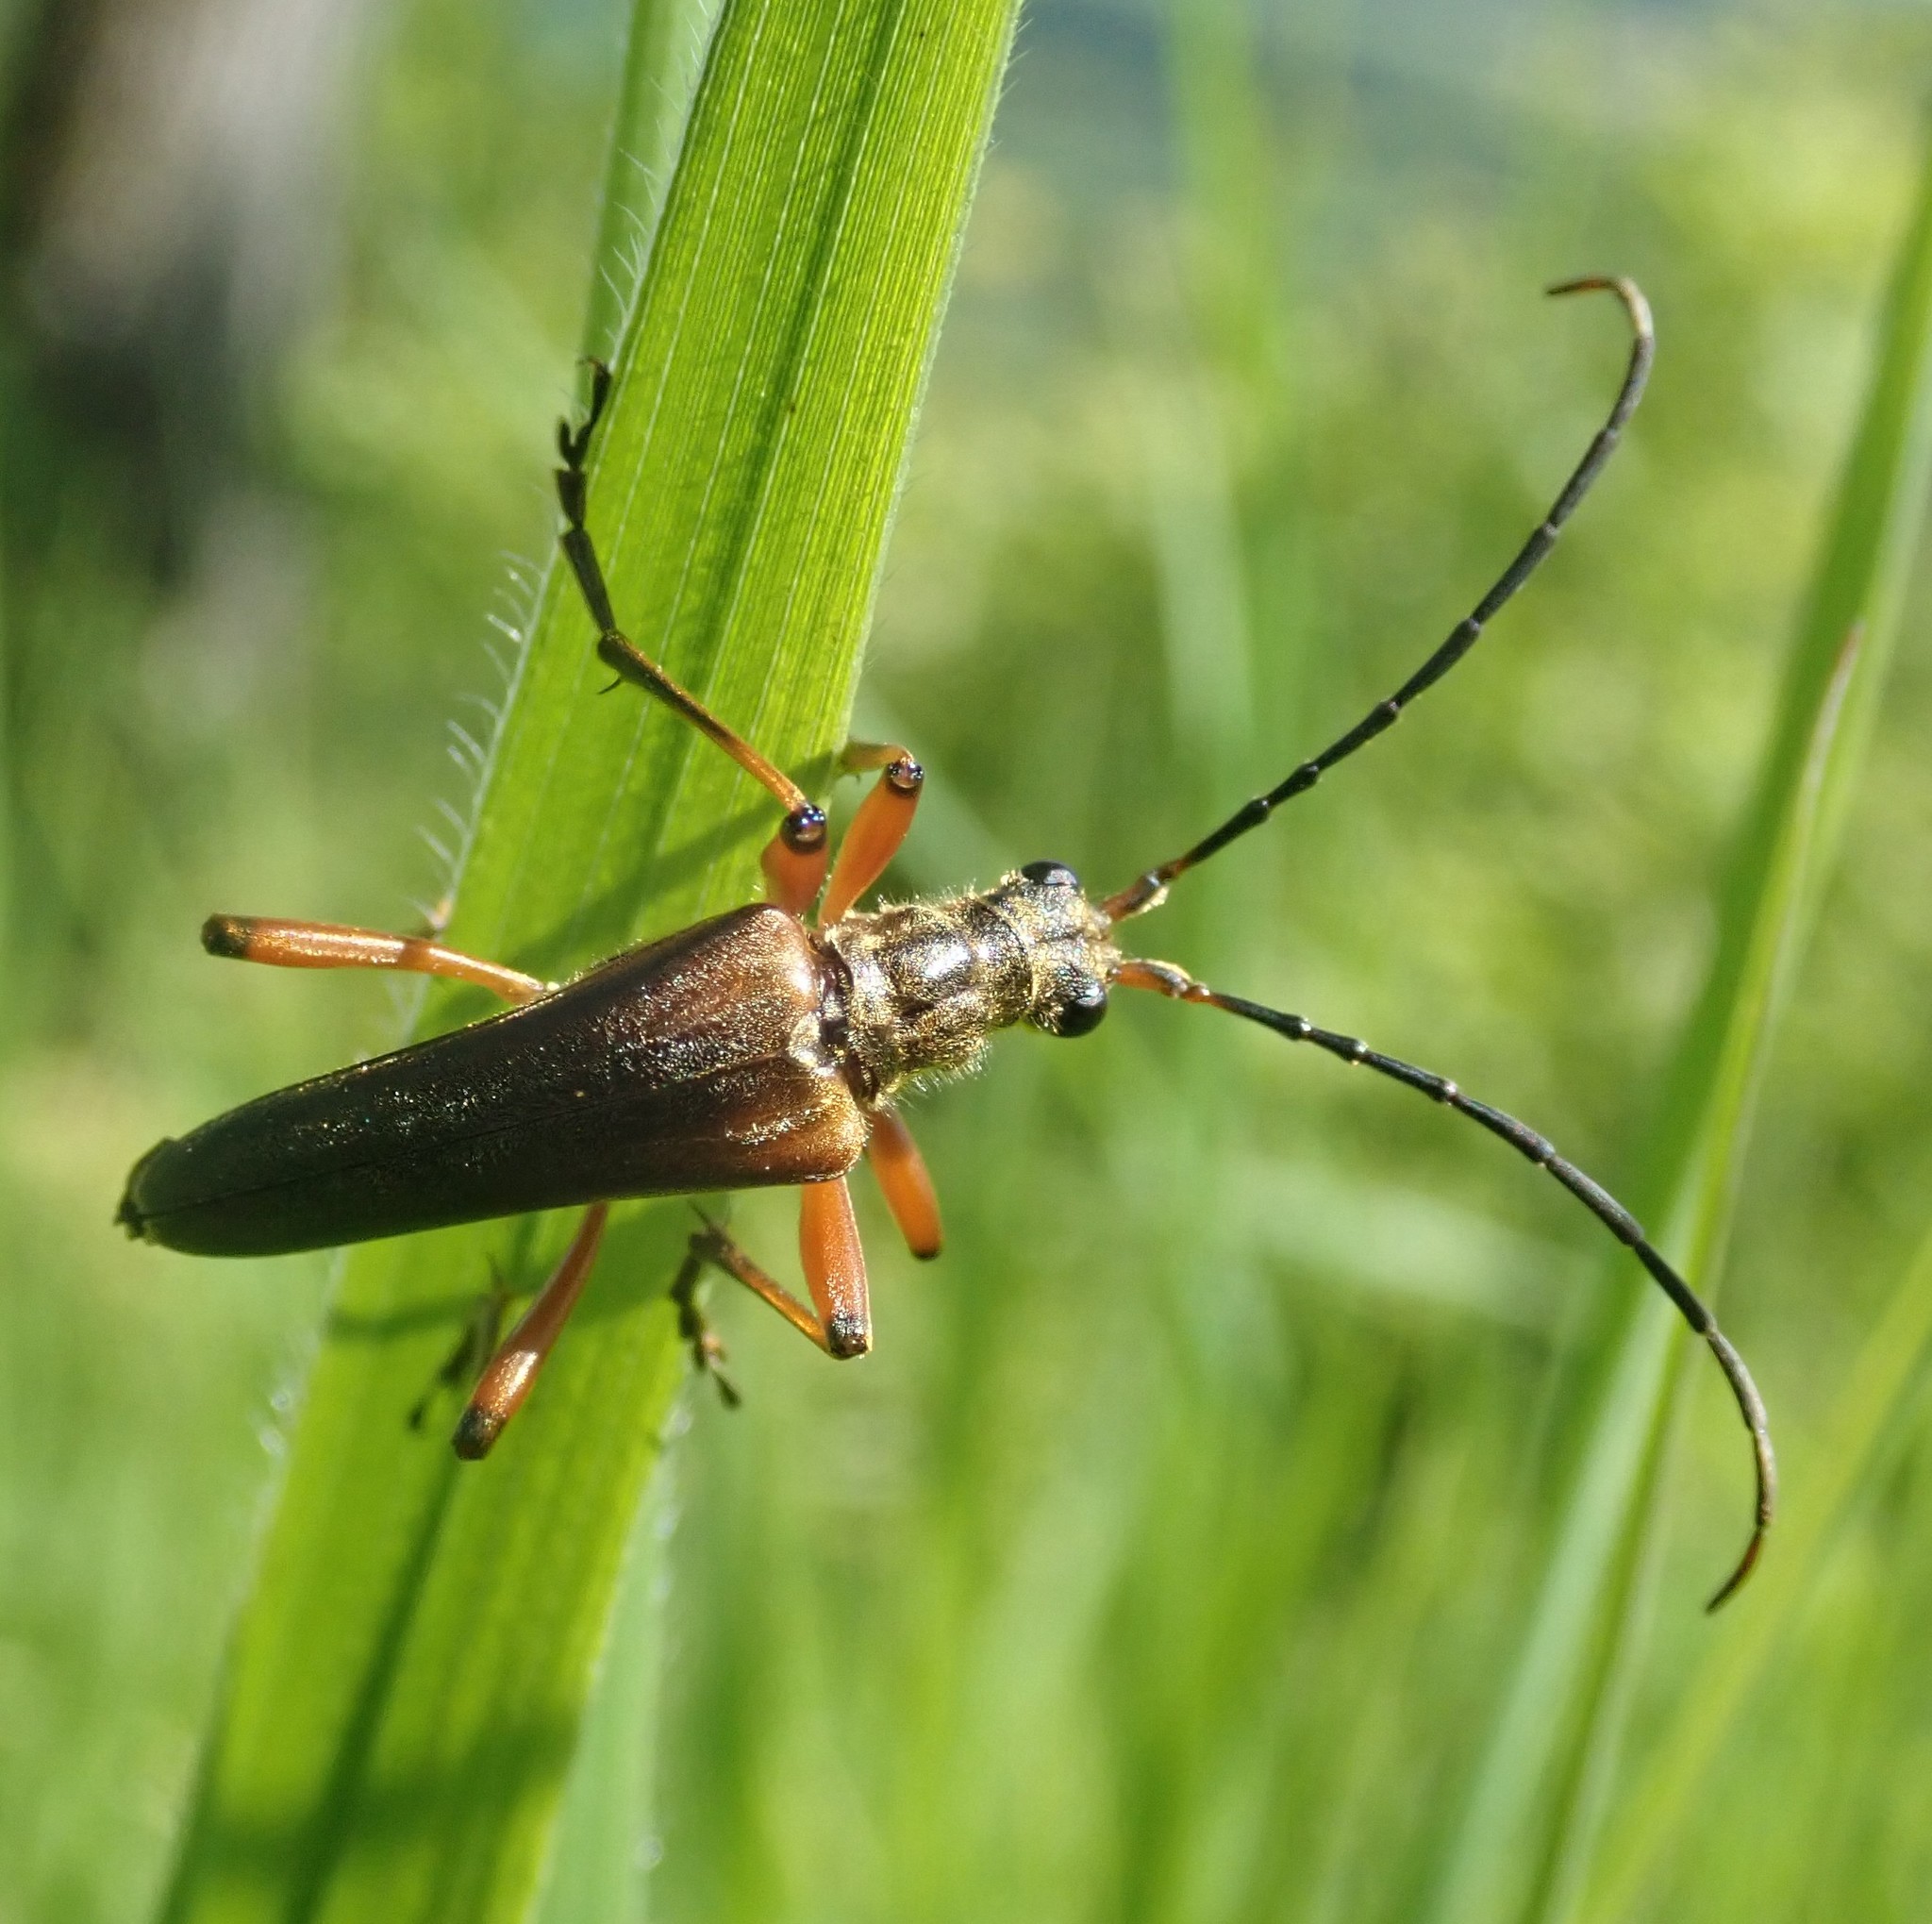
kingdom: Animalia
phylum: Arthropoda
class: Insecta
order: Coleoptera
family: Cerambycidae
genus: Stenocorus
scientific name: Stenocorus meridianus
